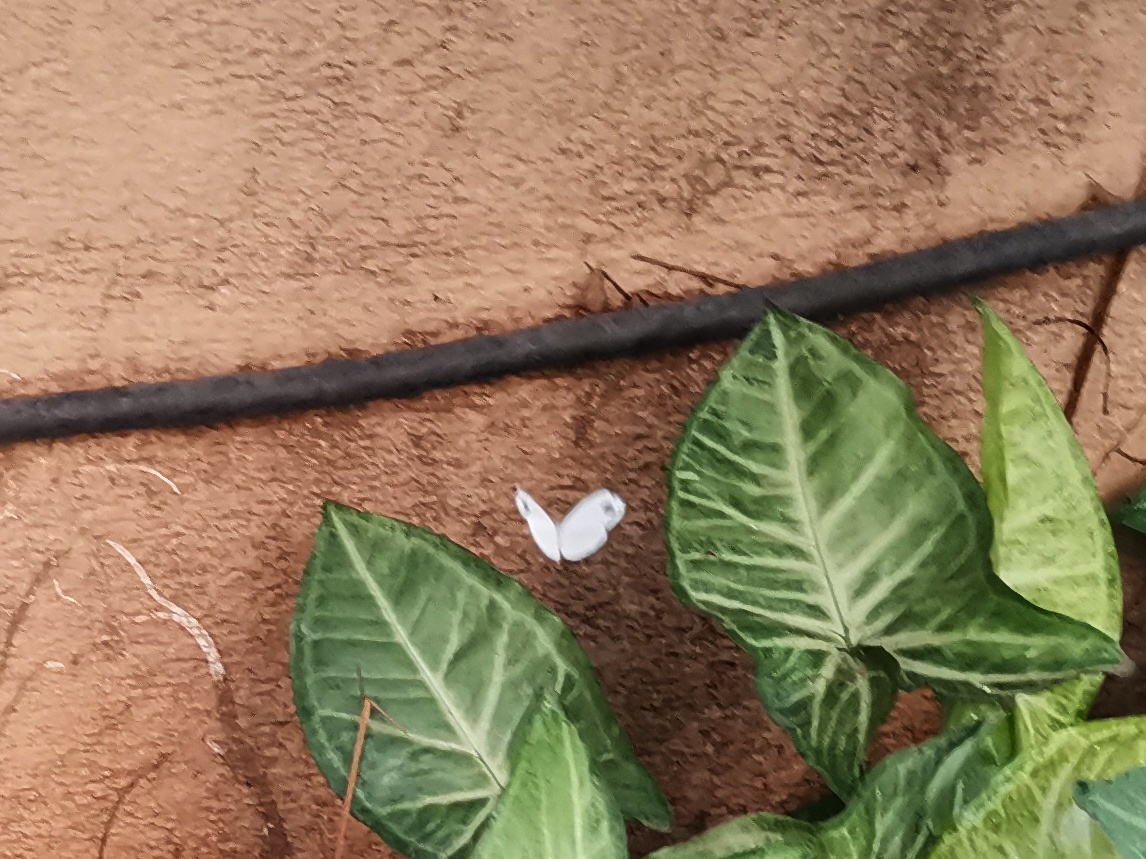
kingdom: Animalia
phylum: Arthropoda
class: Insecta
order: Lepidoptera
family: Pieridae
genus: Leptosia
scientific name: Leptosia nina
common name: Psyche
